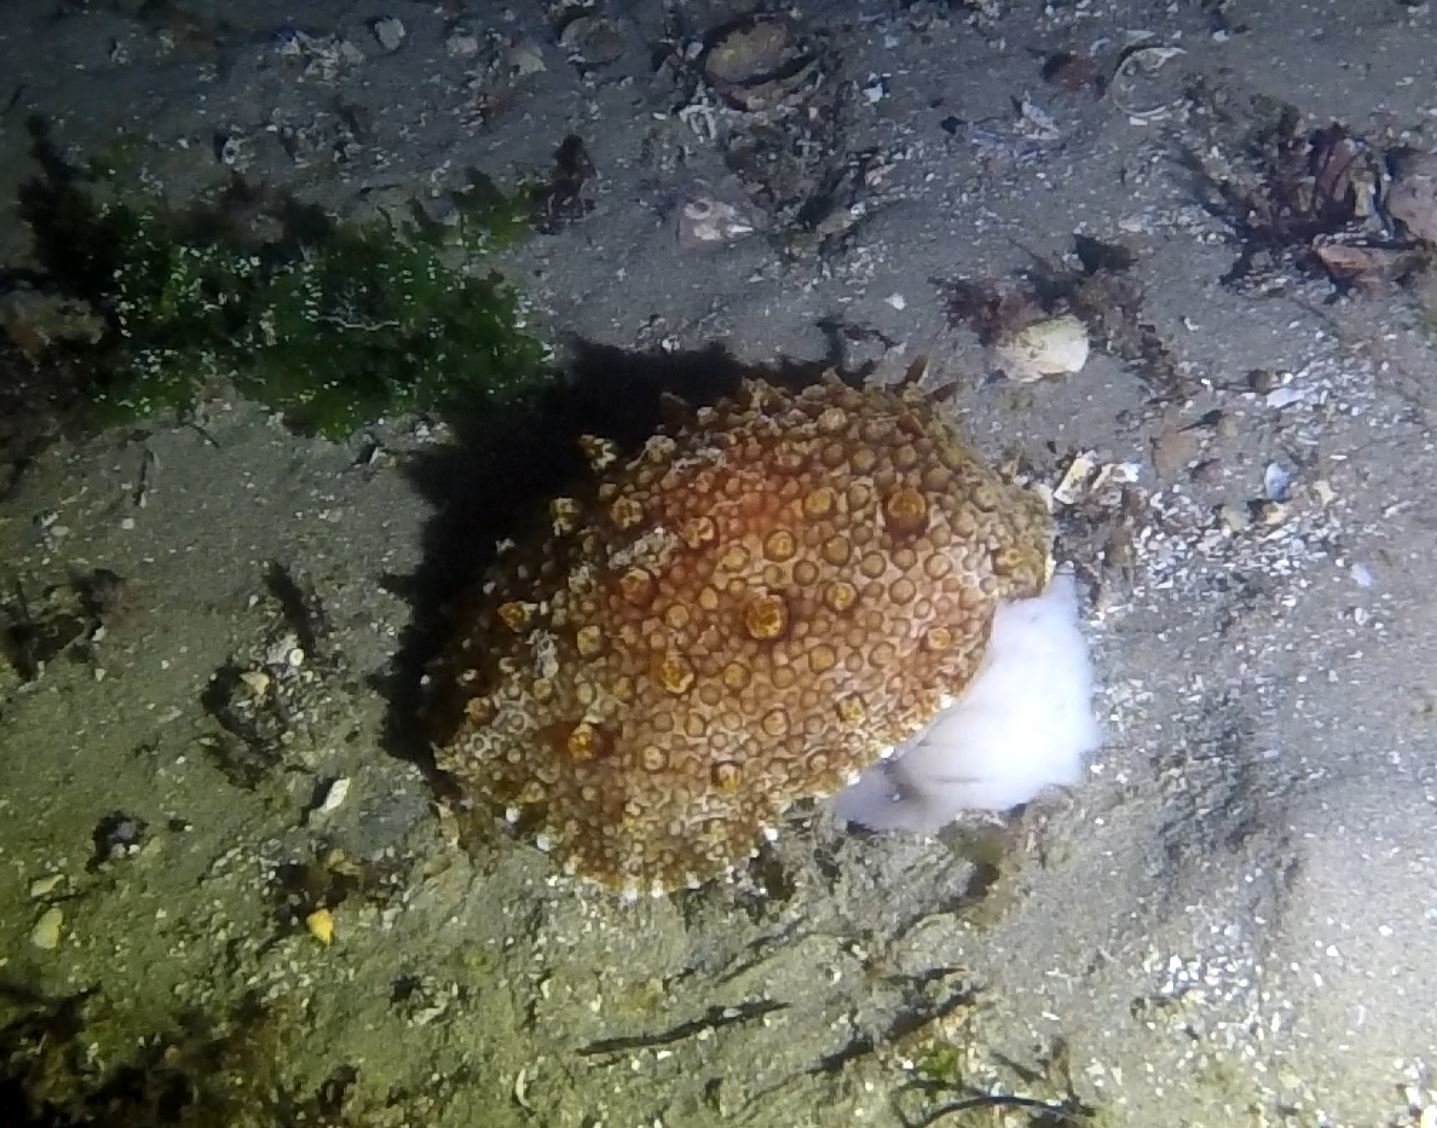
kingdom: Animalia
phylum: Mollusca
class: Gastropoda
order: Pleurobranchida
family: Pleurobranchidae
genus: Pleurobranchus
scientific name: Pleurobranchus hilli
